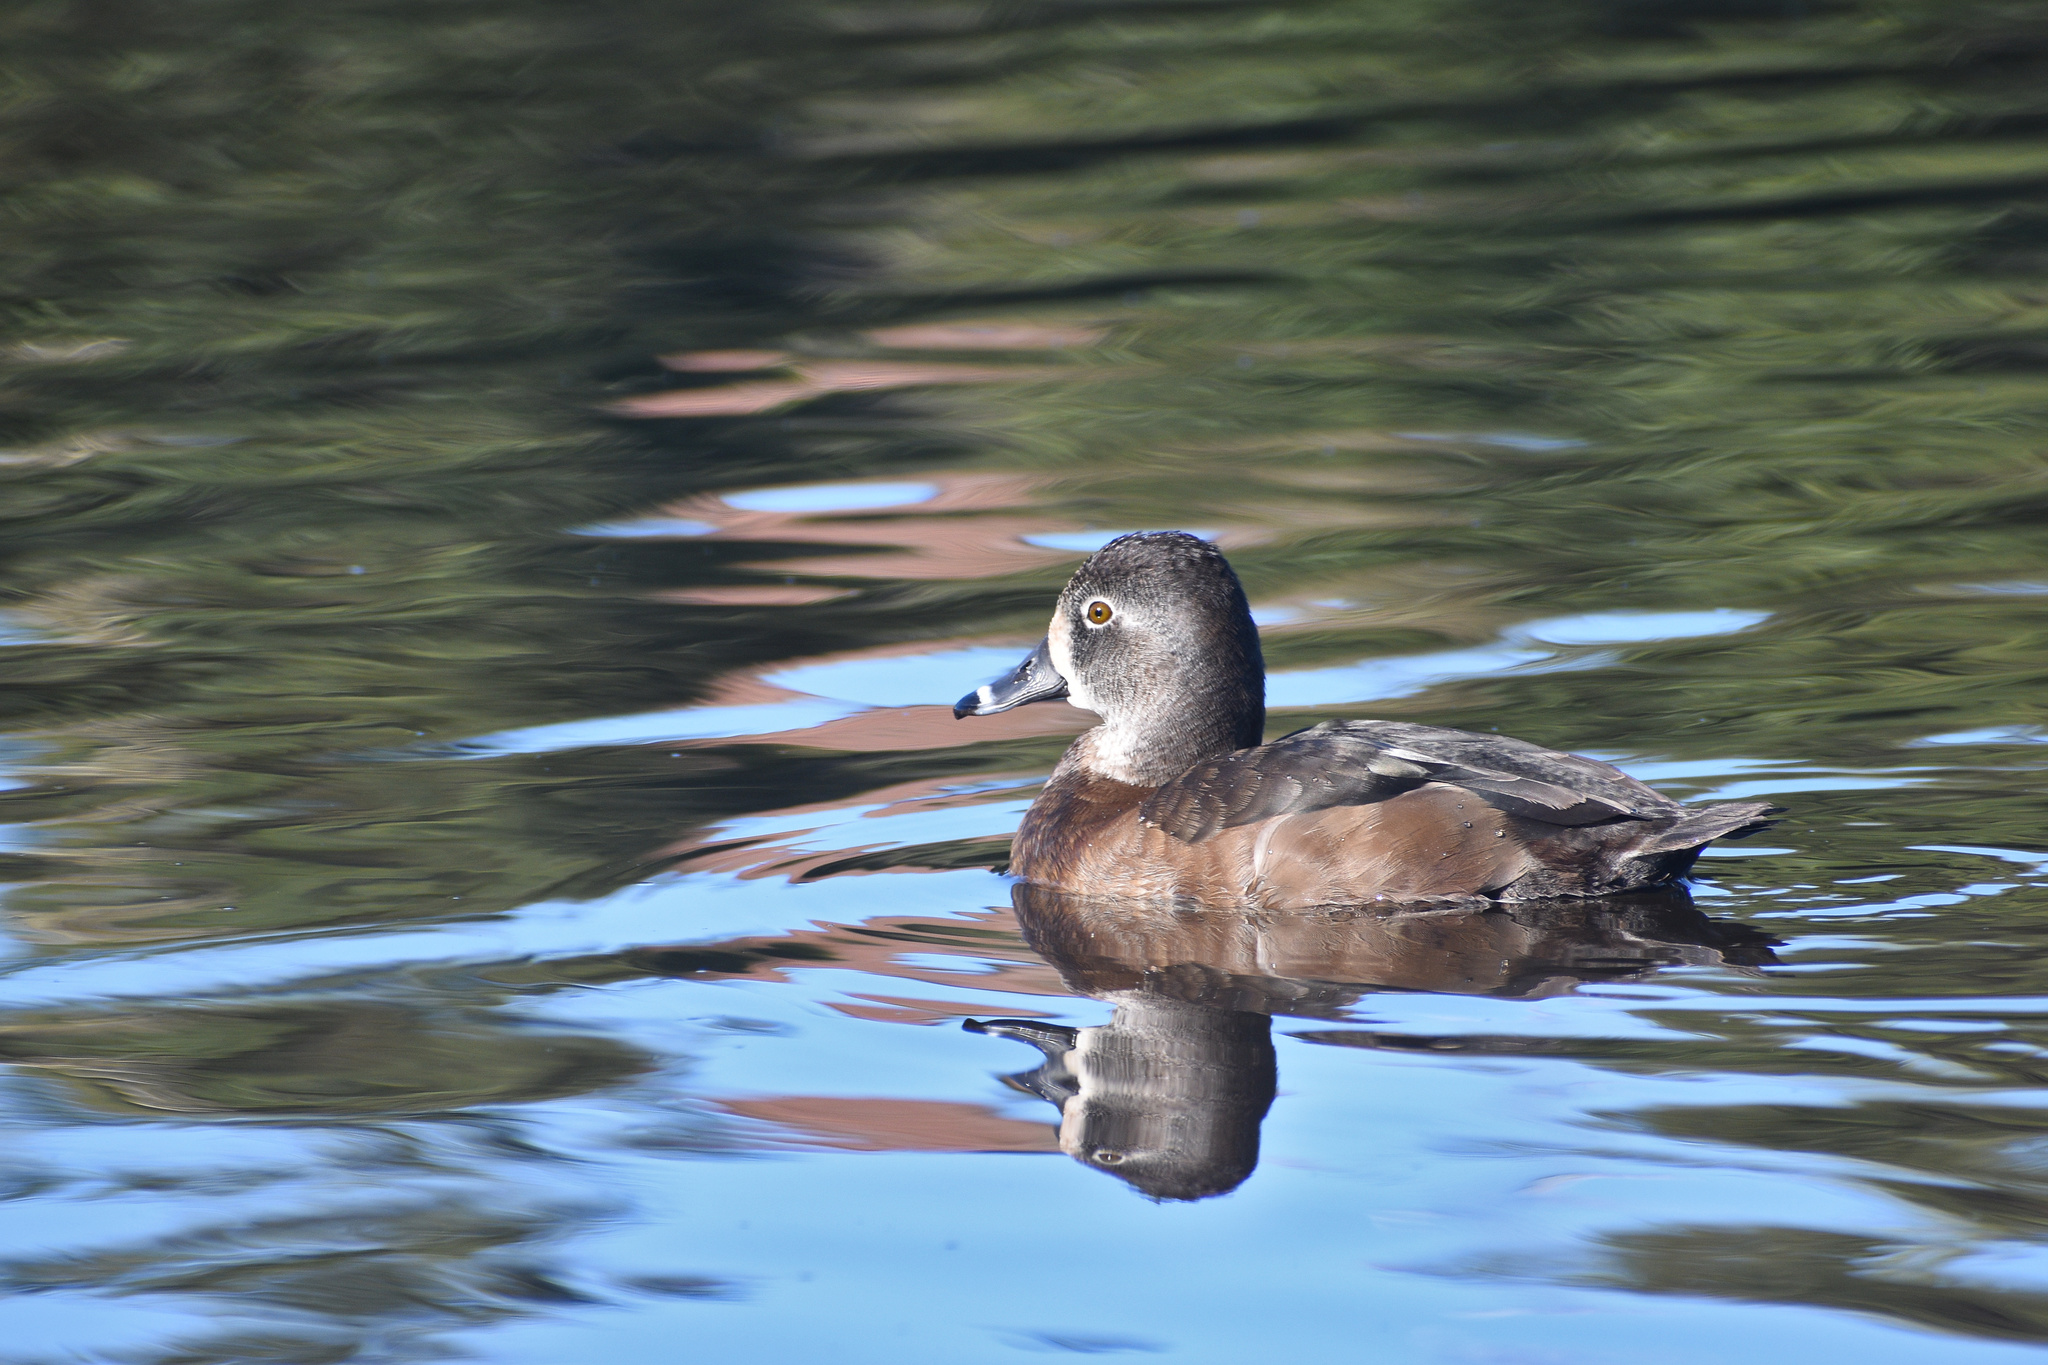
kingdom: Animalia
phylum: Chordata
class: Aves
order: Anseriformes
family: Anatidae
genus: Aythya
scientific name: Aythya collaris
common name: Ring-necked duck
